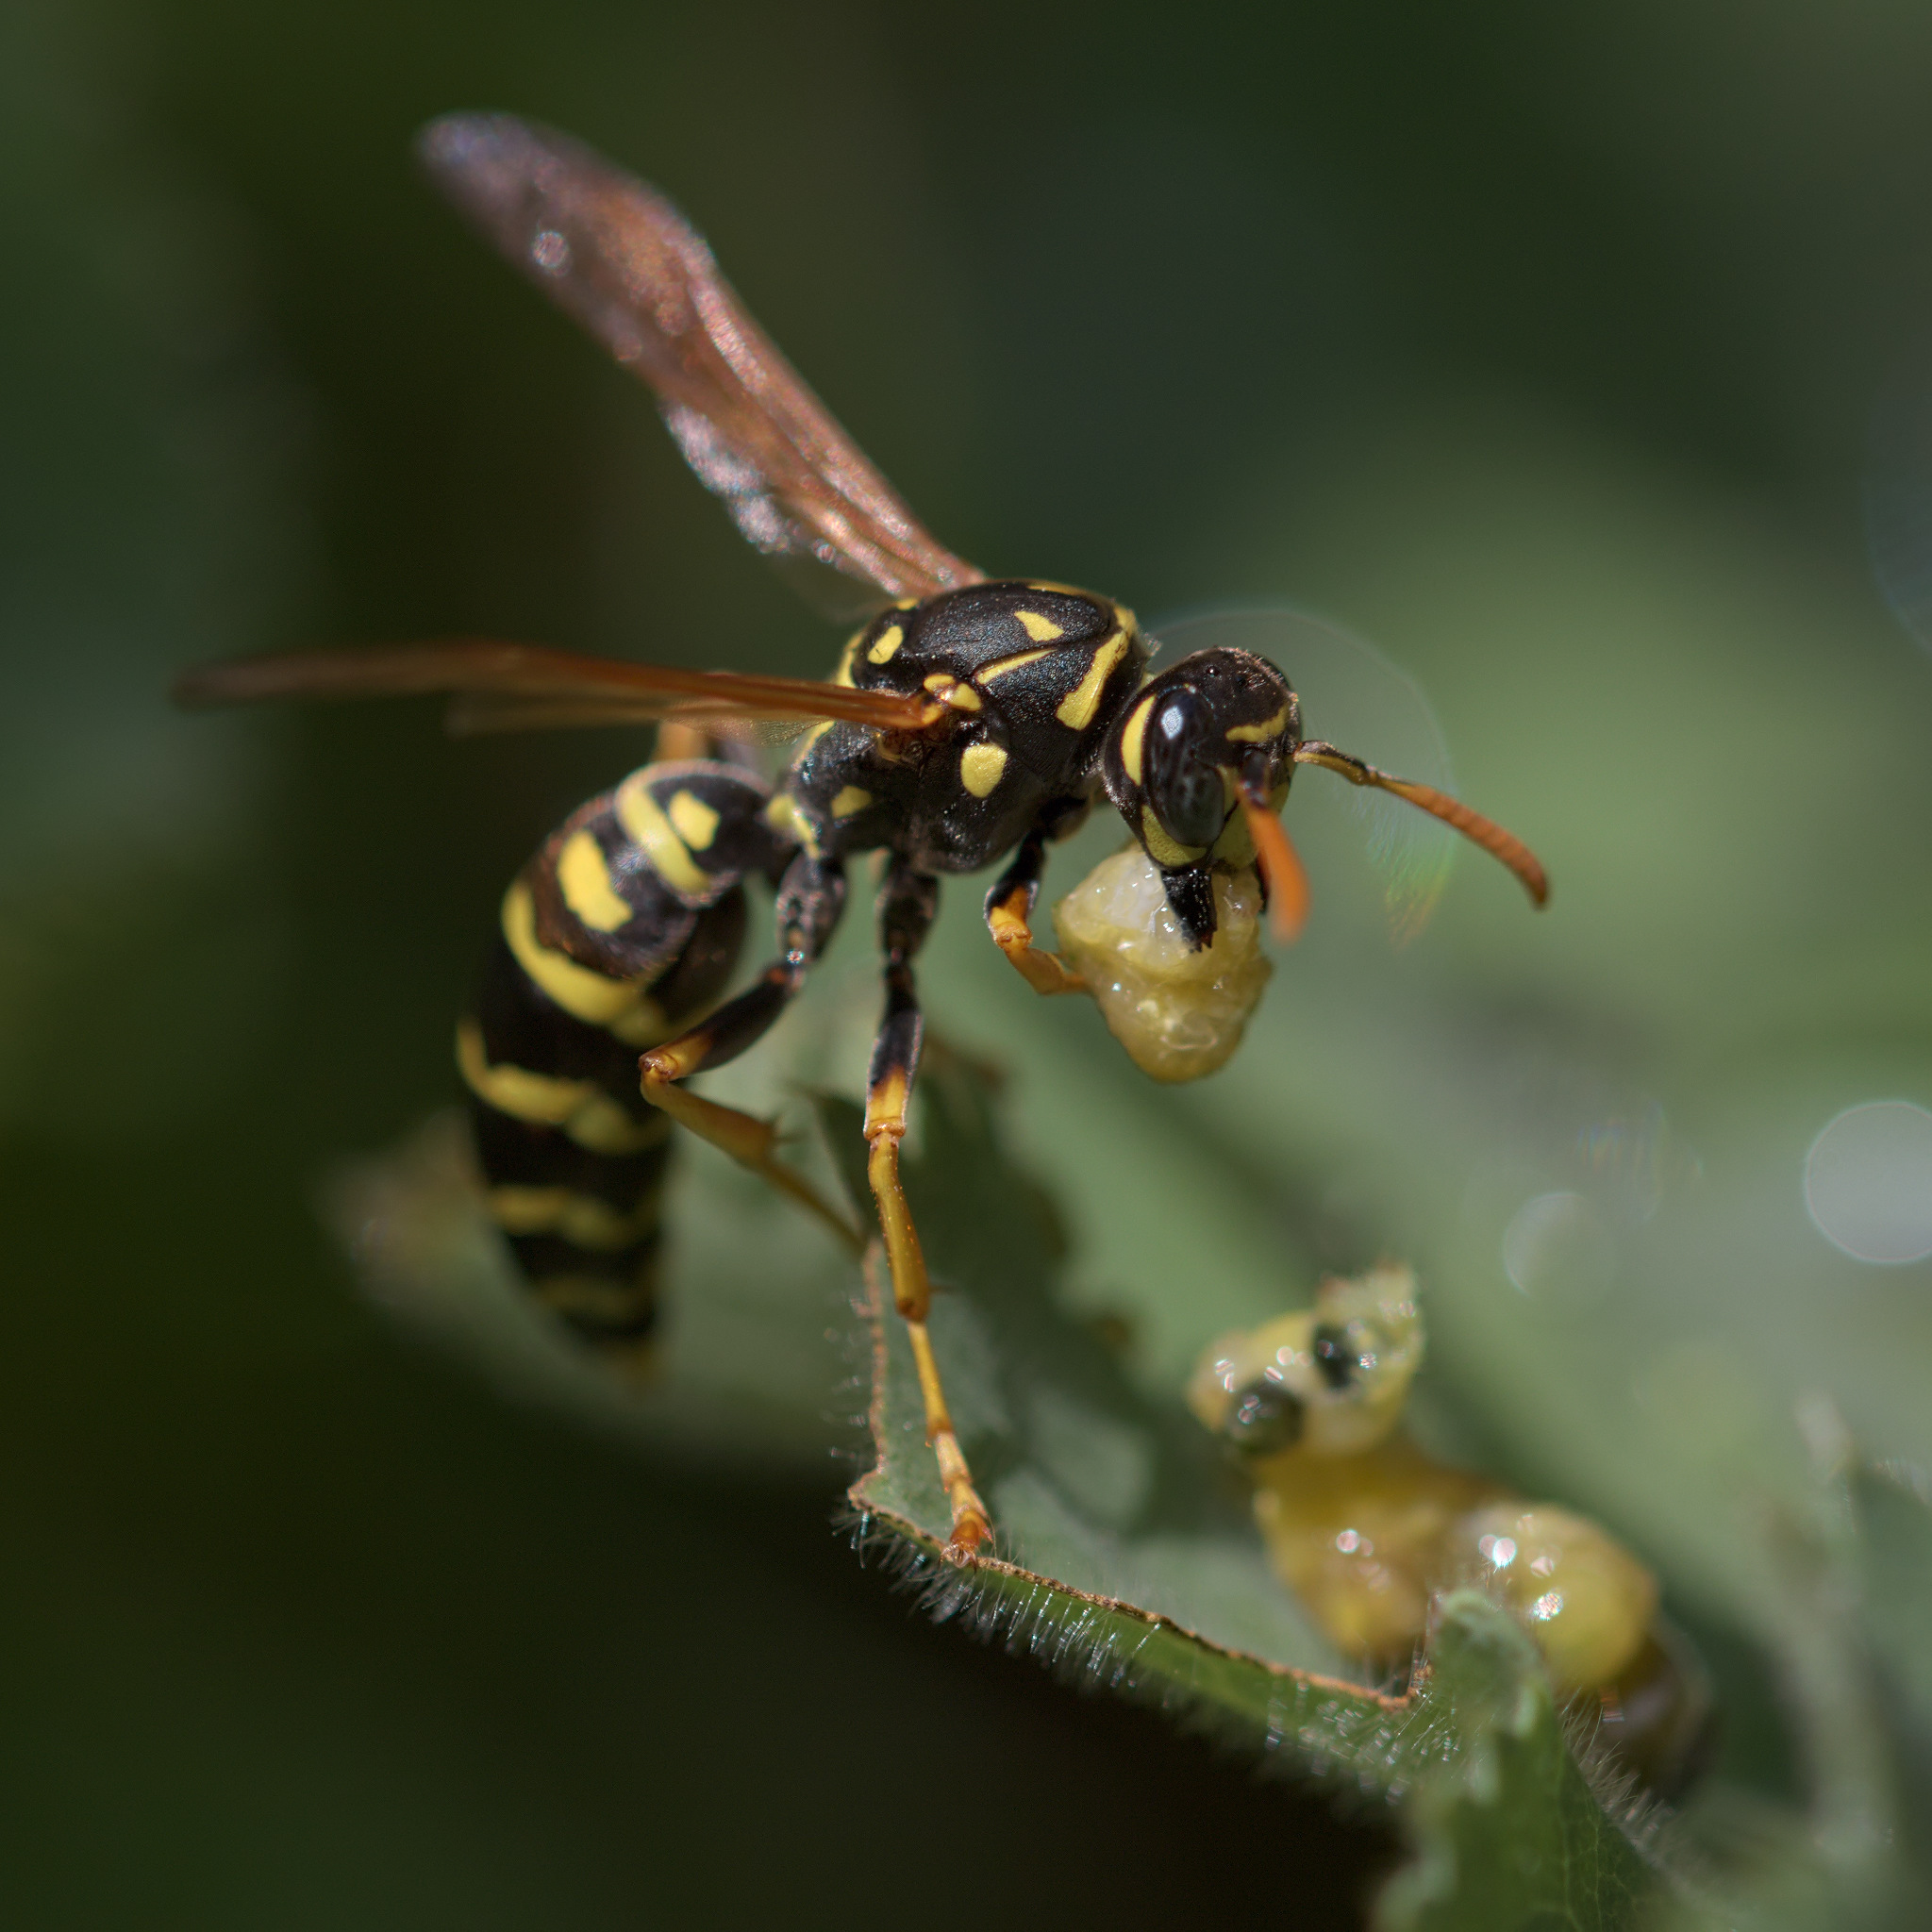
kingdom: Animalia
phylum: Arthropoda
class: Insecta
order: Hymenoptera
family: Eumenidae
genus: Polistes
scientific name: Polistes dominula
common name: Paper wasp
